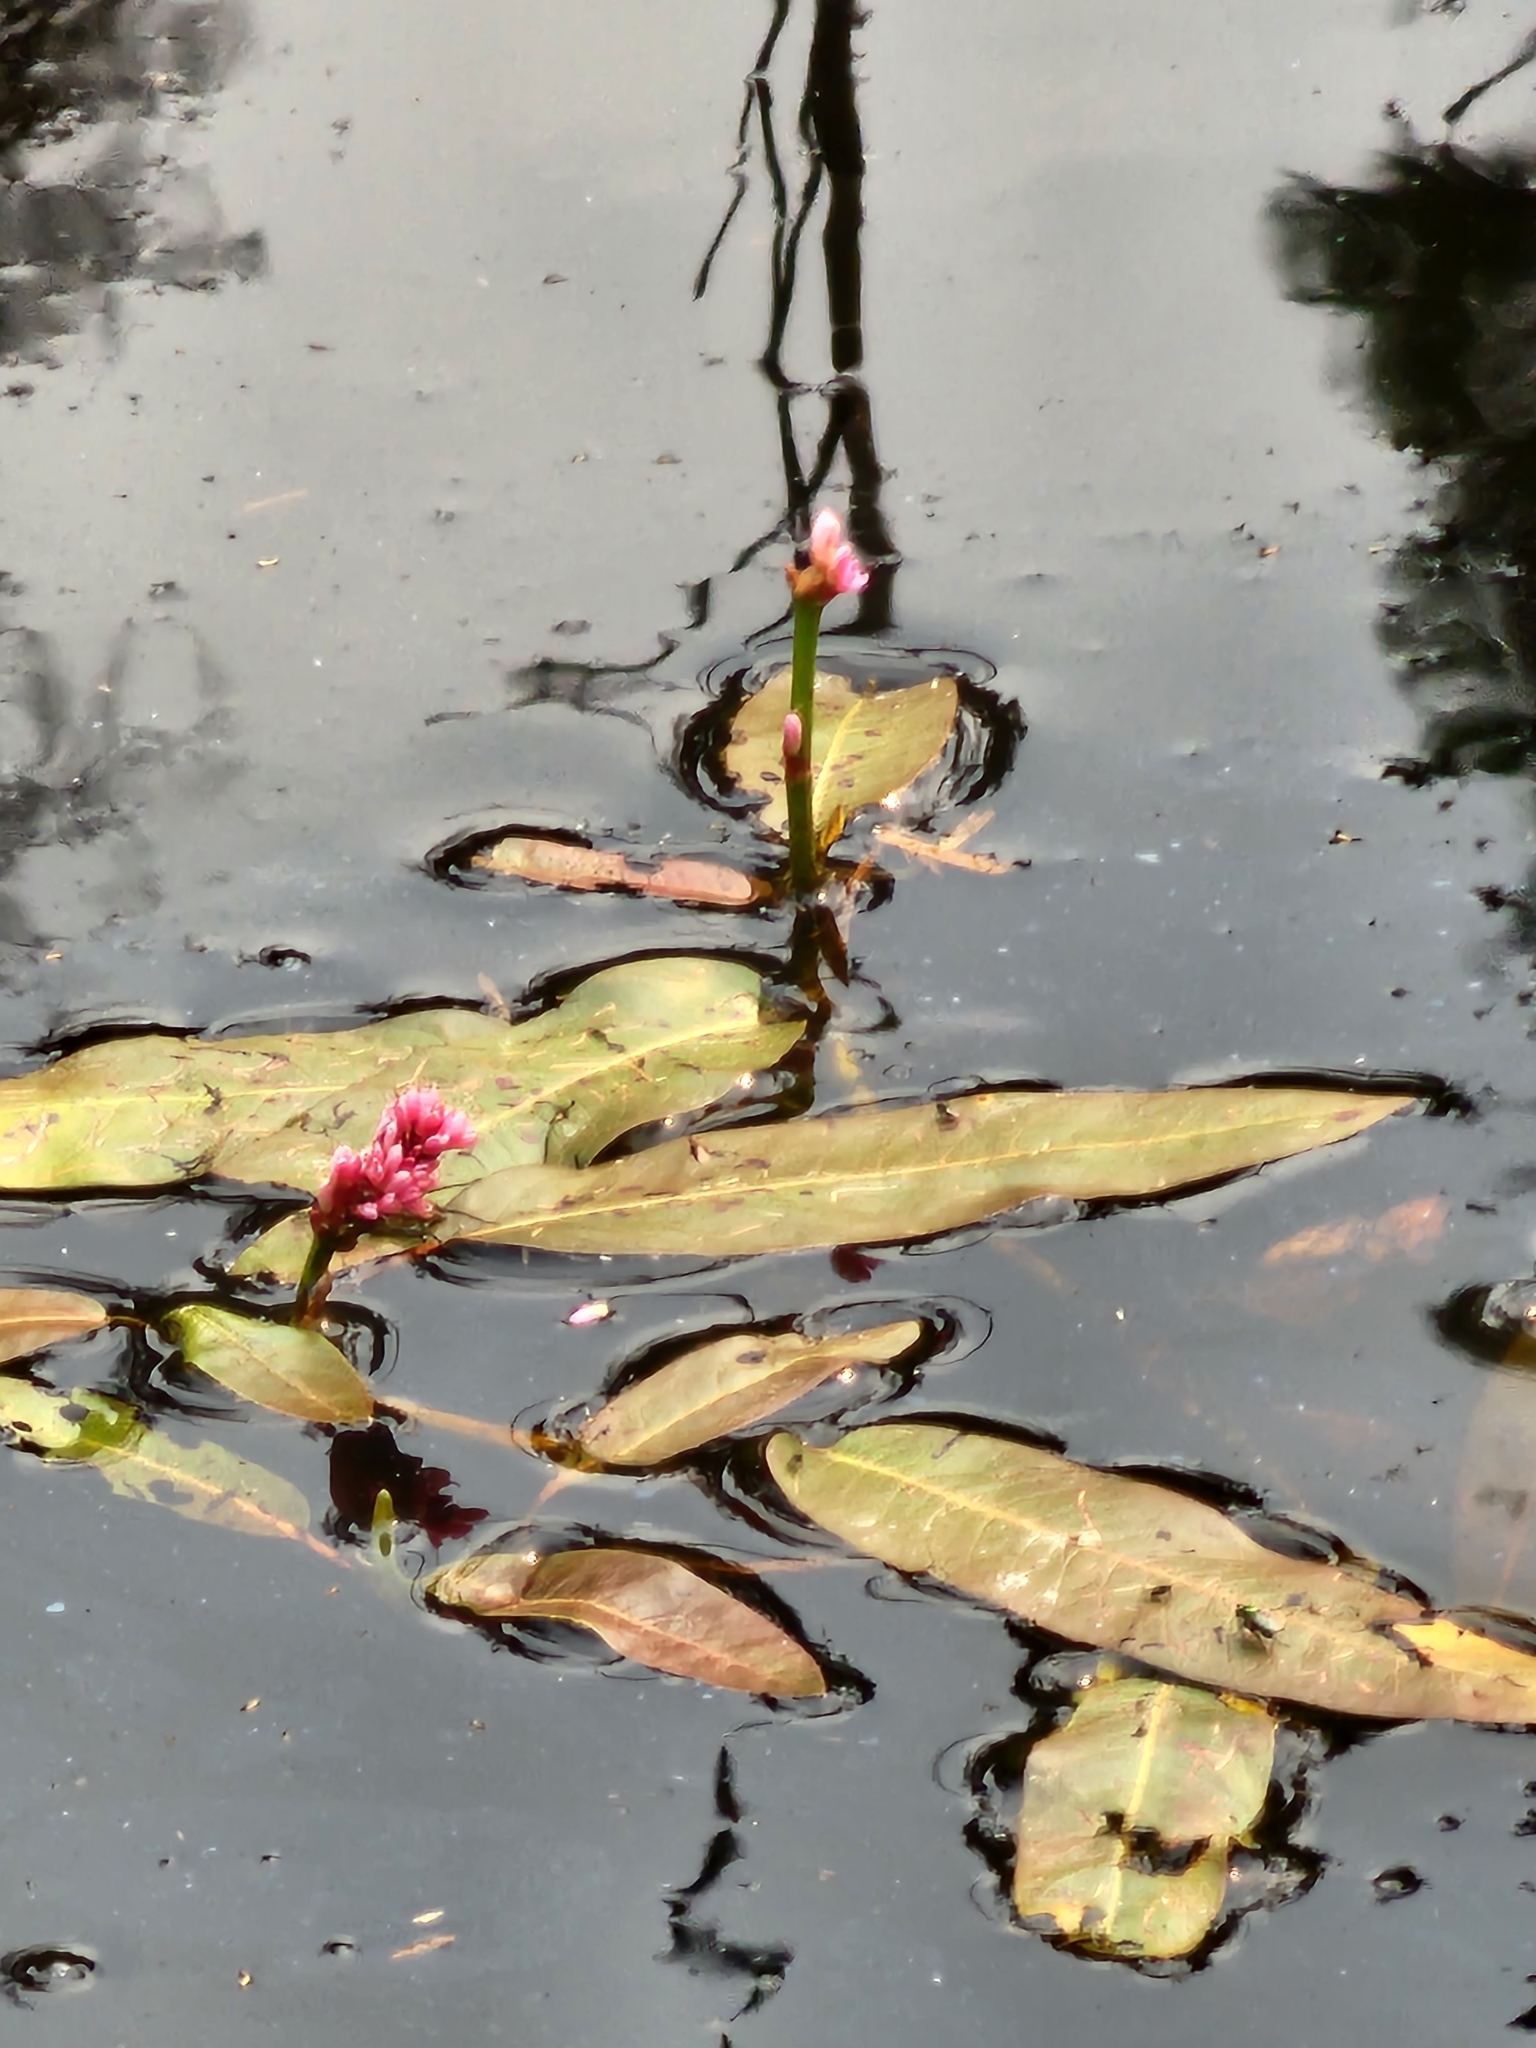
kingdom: Plantae
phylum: Tracheophyta
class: Magnoliopsida
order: Caryophyllales
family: Polygonaceae
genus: Persicaria
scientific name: Persicaria amphibia
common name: Amphibious bistort
